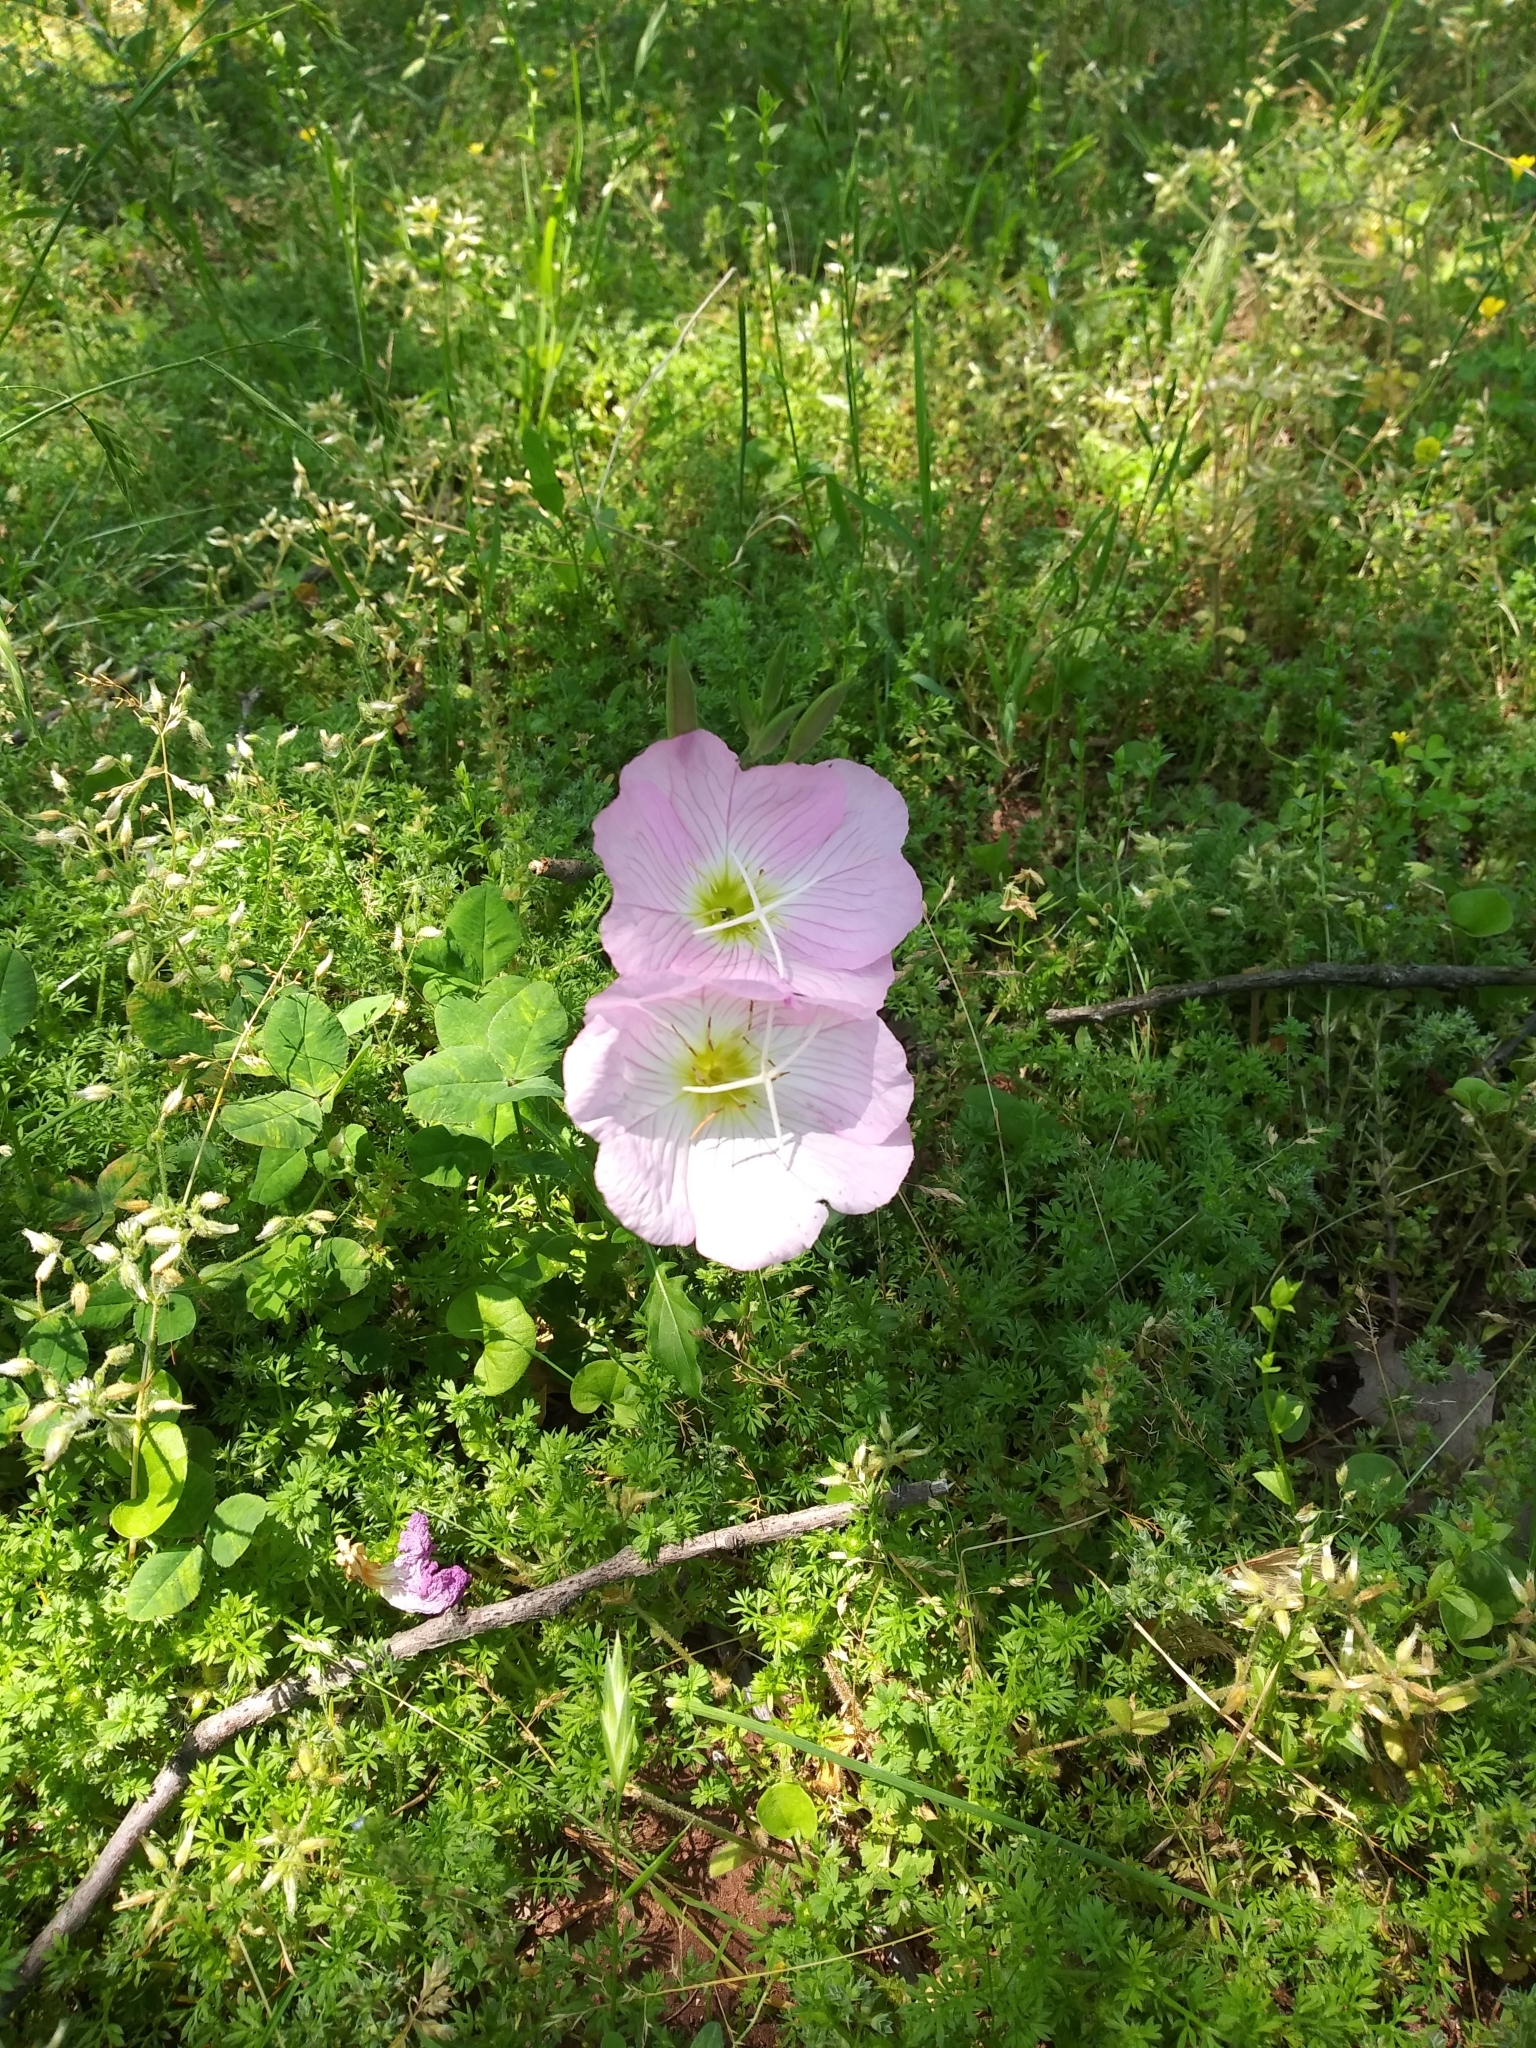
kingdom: Plantae
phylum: Tracheophyta
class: Magnoliopsida
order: Myrtales
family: Onagraceae
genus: Oenothera
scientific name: Oenothera speciosa
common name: White evening-primrose
